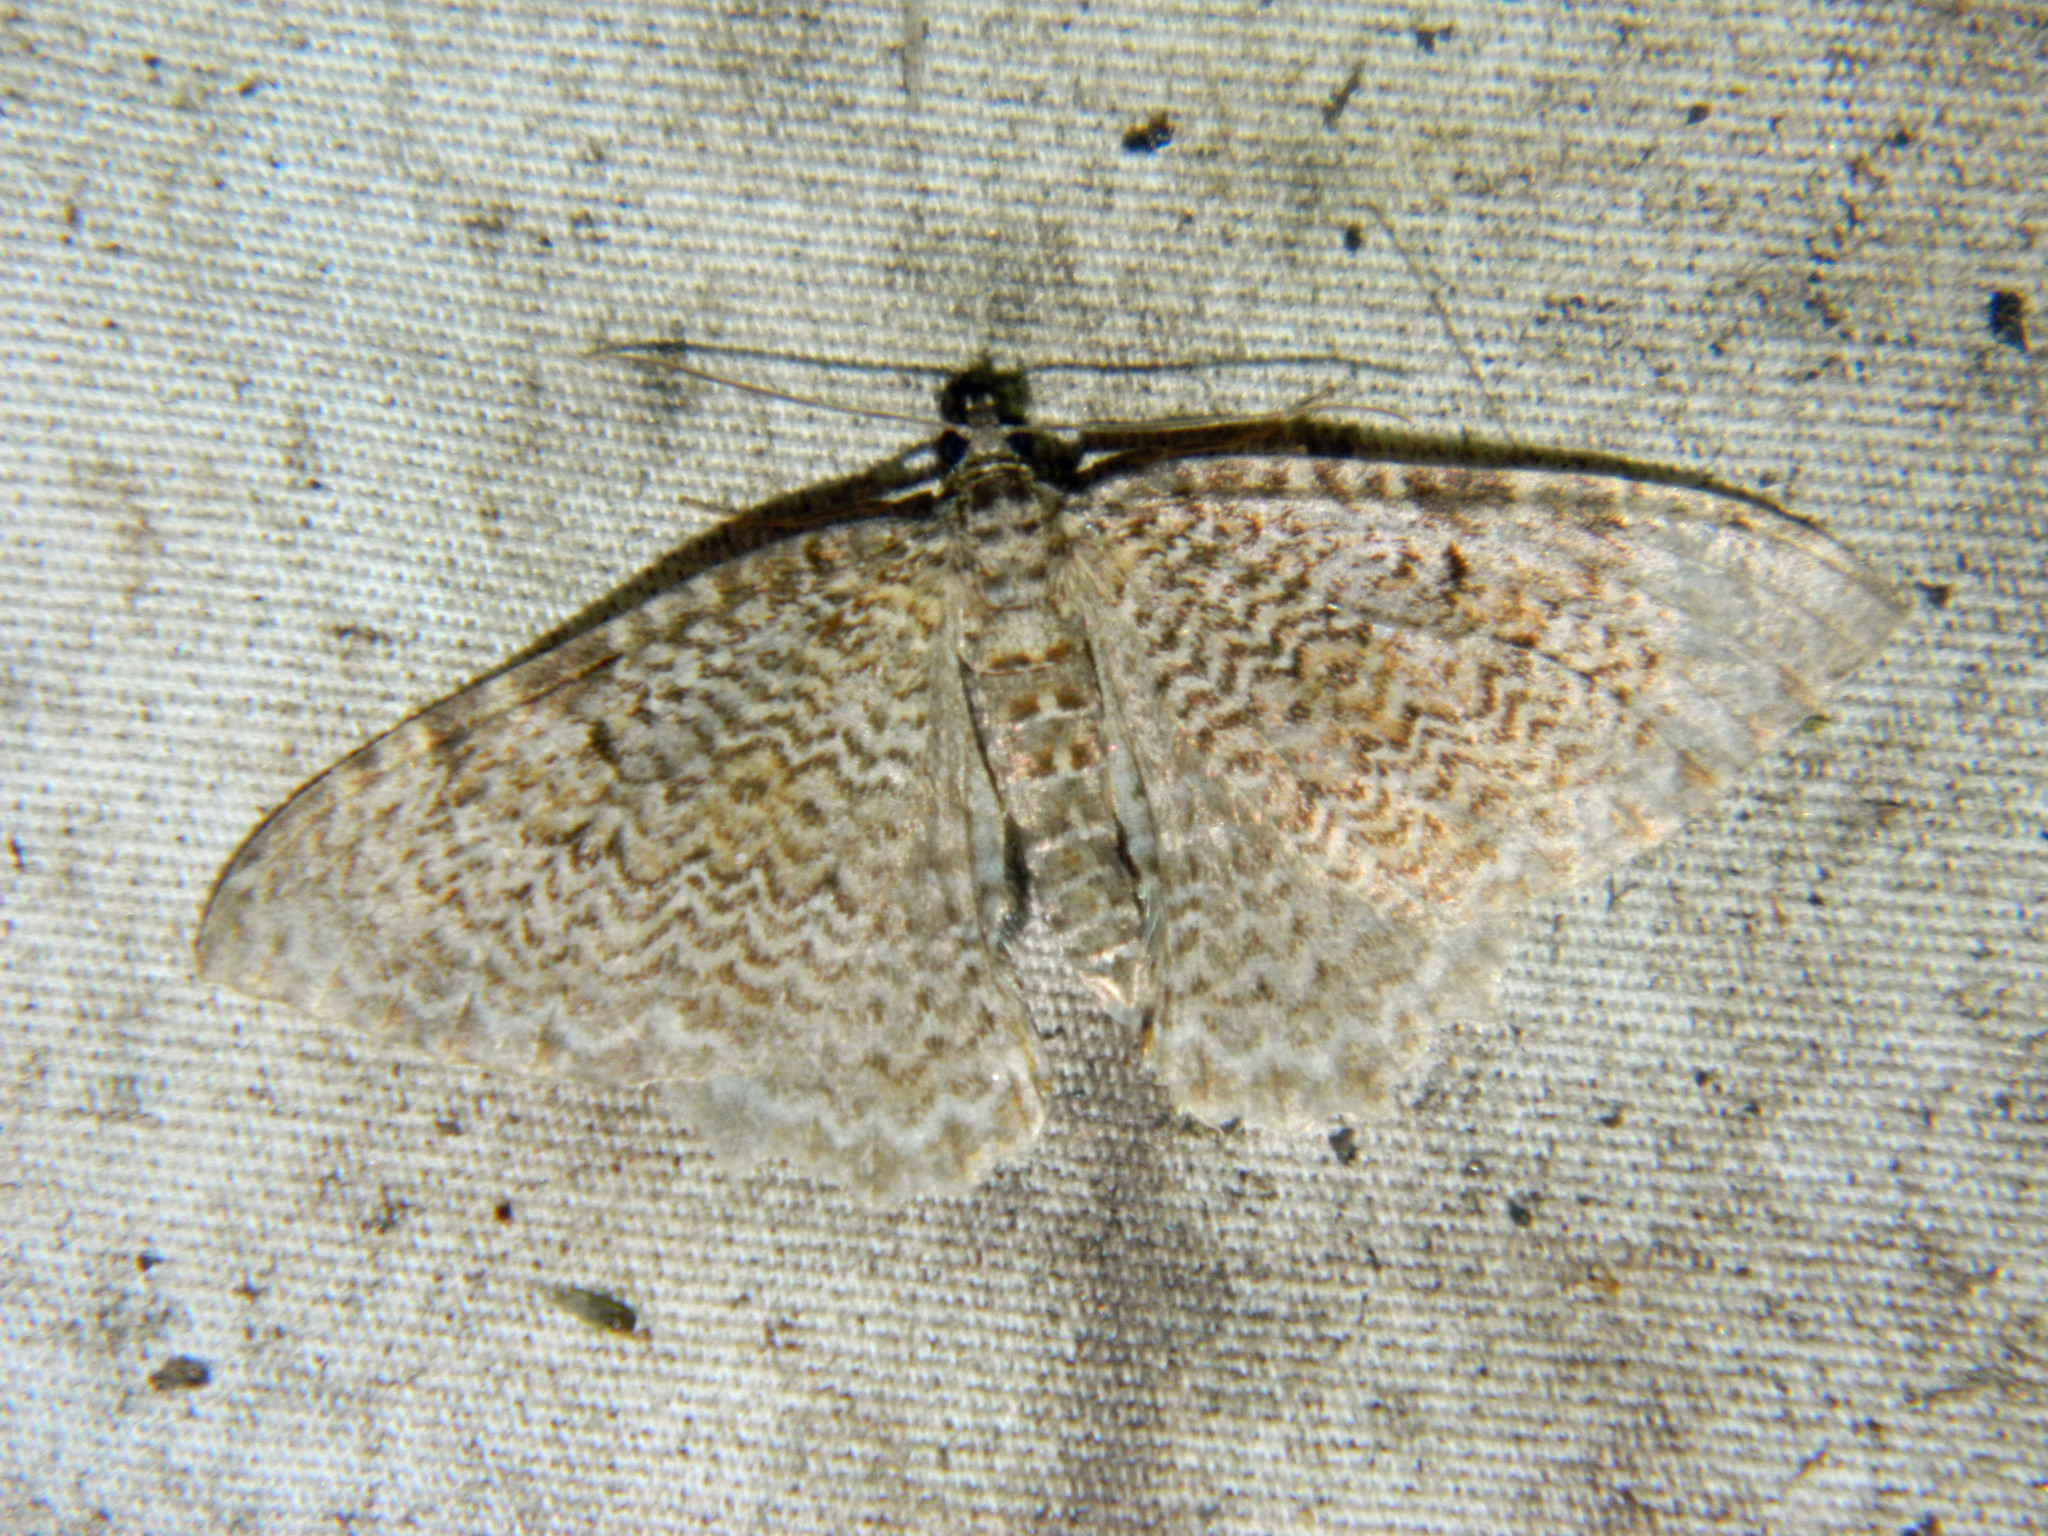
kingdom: Animalia
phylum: Arthropoda
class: Insecta
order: Lepidoptera
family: Geometridae
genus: Rheumaptera
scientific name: Rheumaptera
